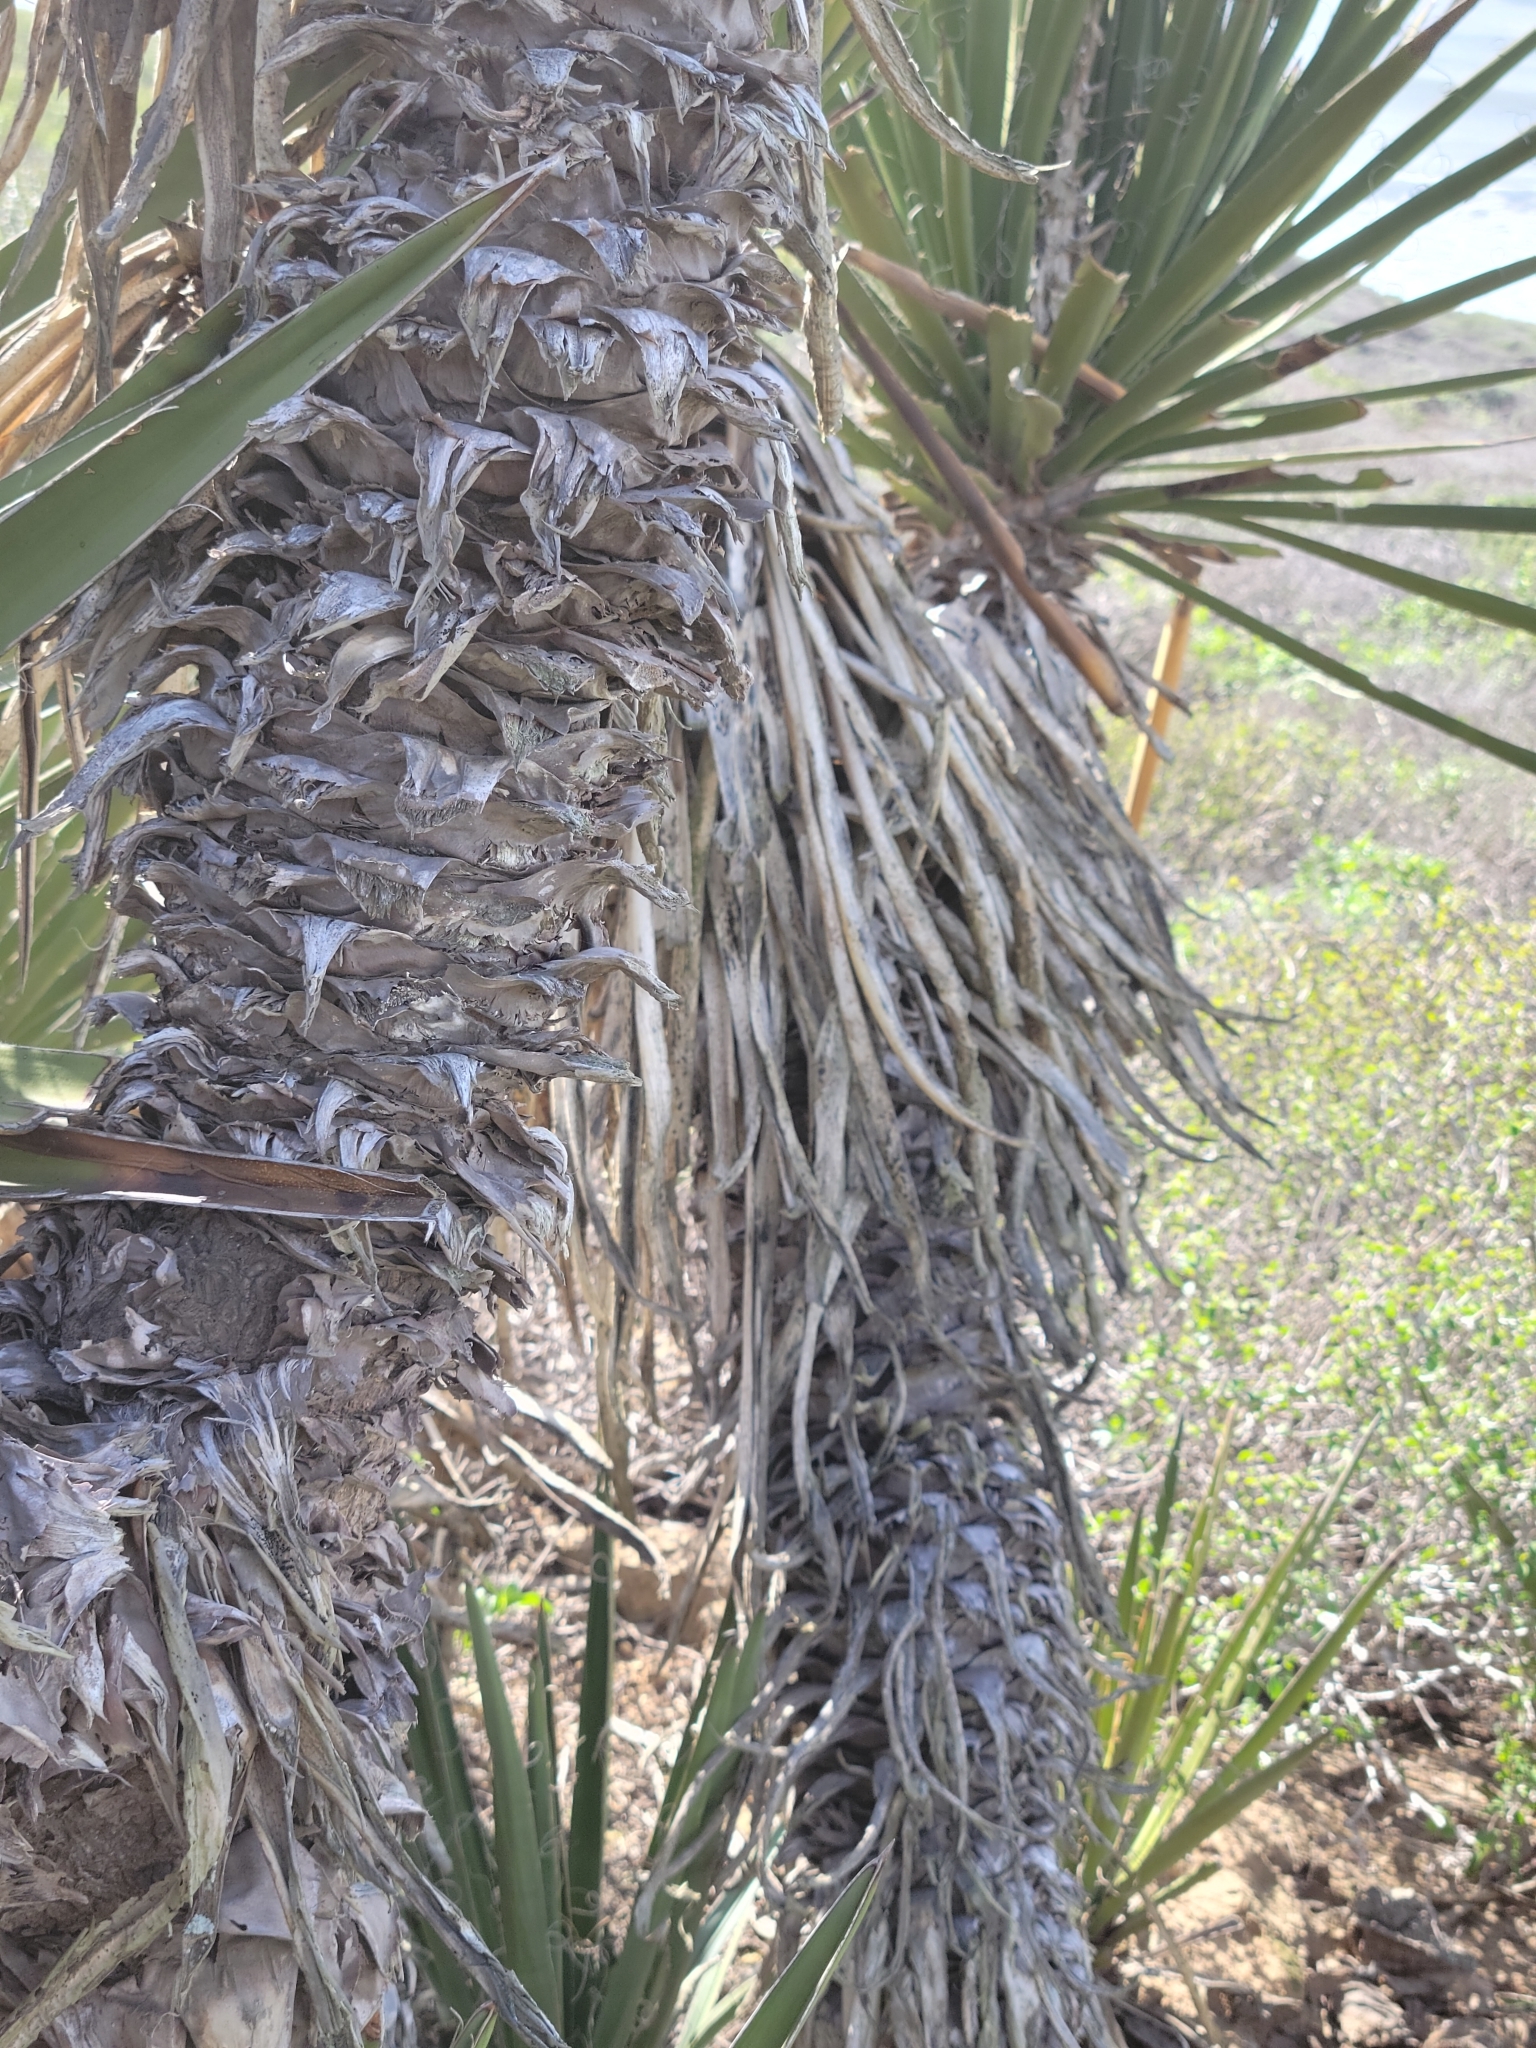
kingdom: Plantae
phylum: Tracheophyta
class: Liliopsida
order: Asparagales
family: Asparagaceae
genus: Yucca
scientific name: Yucca schidigera
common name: Mojave yucca
